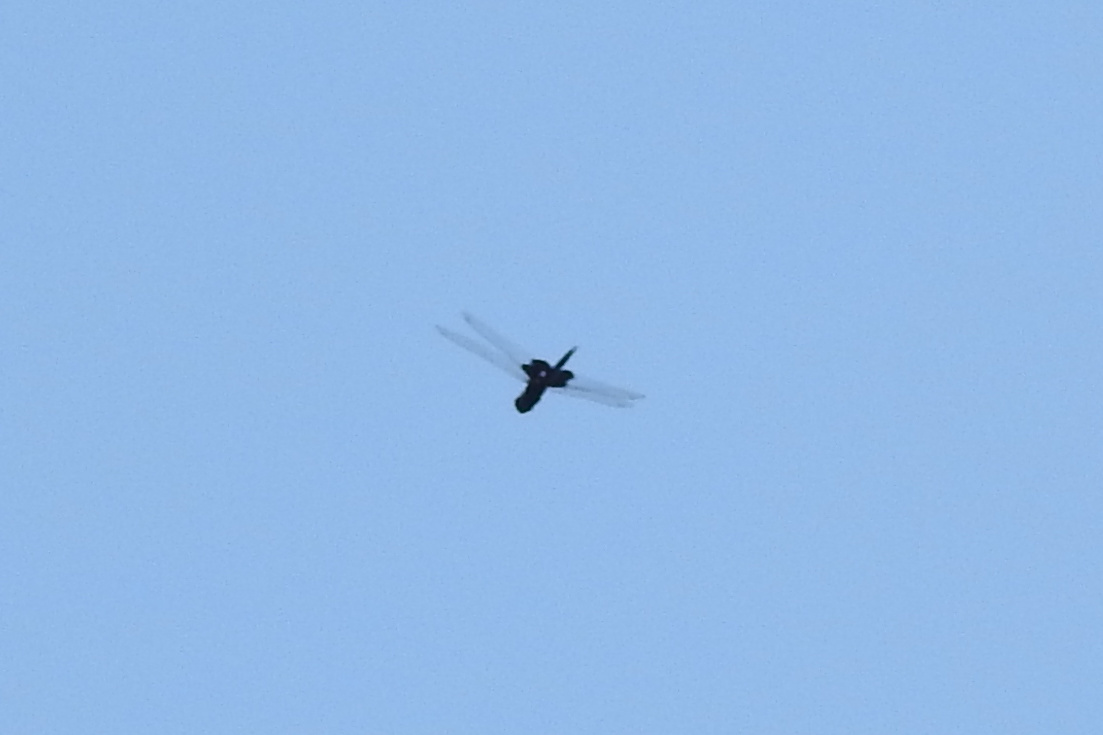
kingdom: Animalia
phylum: Arthropoda
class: Insecta
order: Odonata
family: Libellulidae
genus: Tramea
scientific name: Tramea lacerata
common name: Black saddlebags
